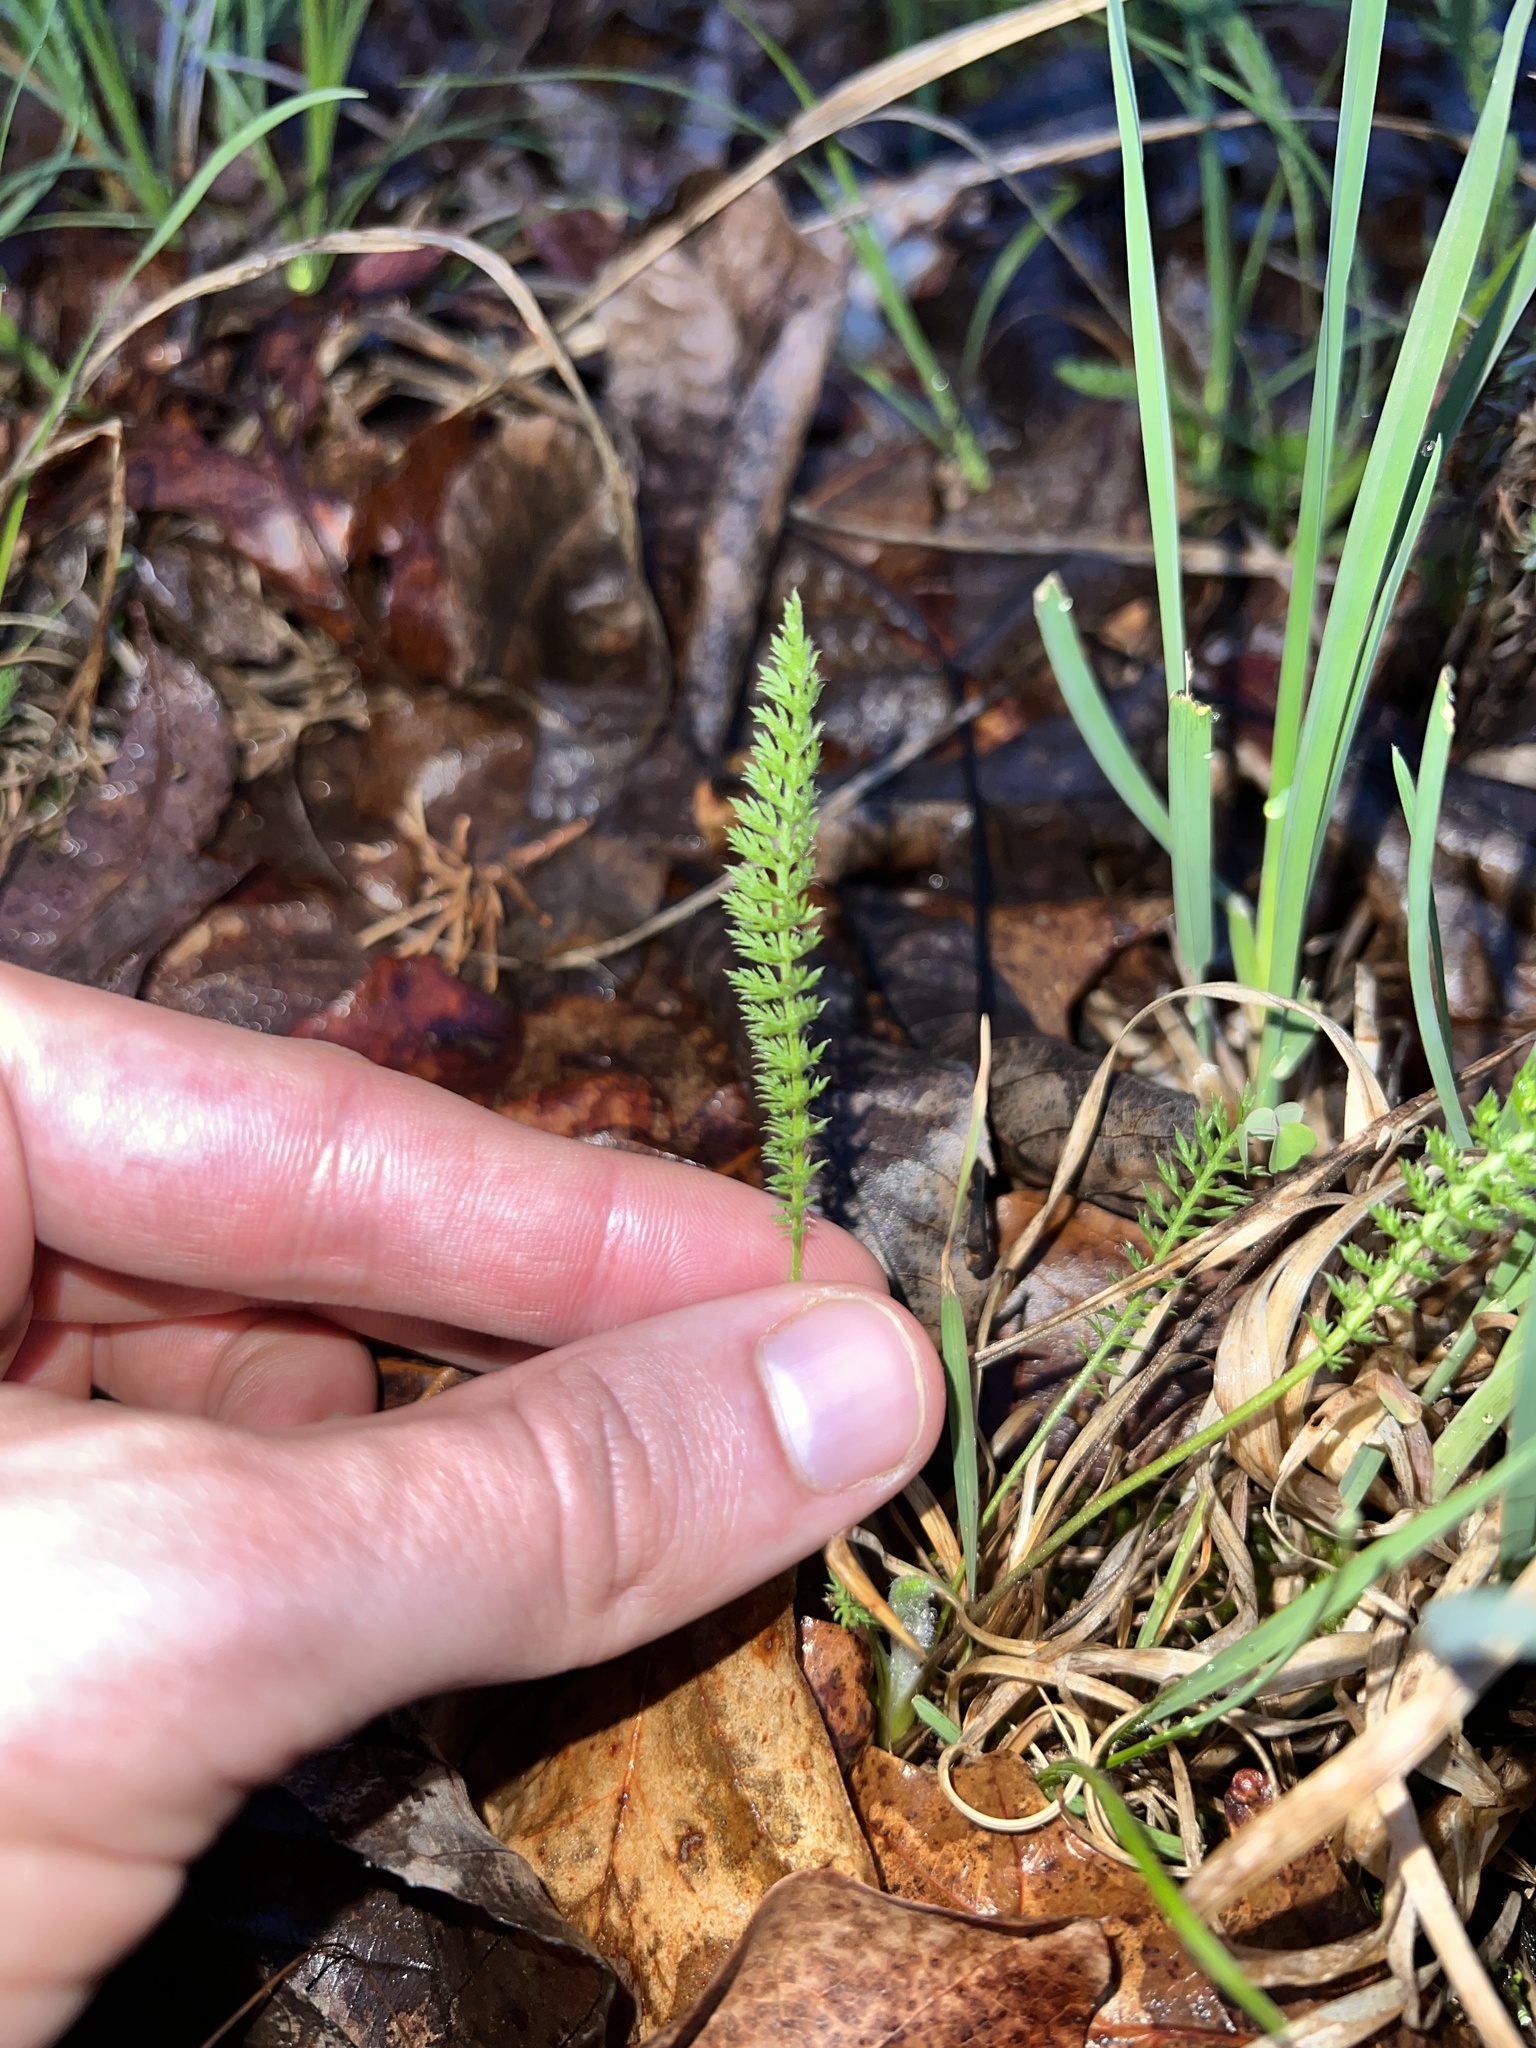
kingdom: Plantae
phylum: Tracheophyta
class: Magnoliopsida
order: Asterales
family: Asteraceae
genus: Achillea
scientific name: Achillea millefolium
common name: Yarrow
